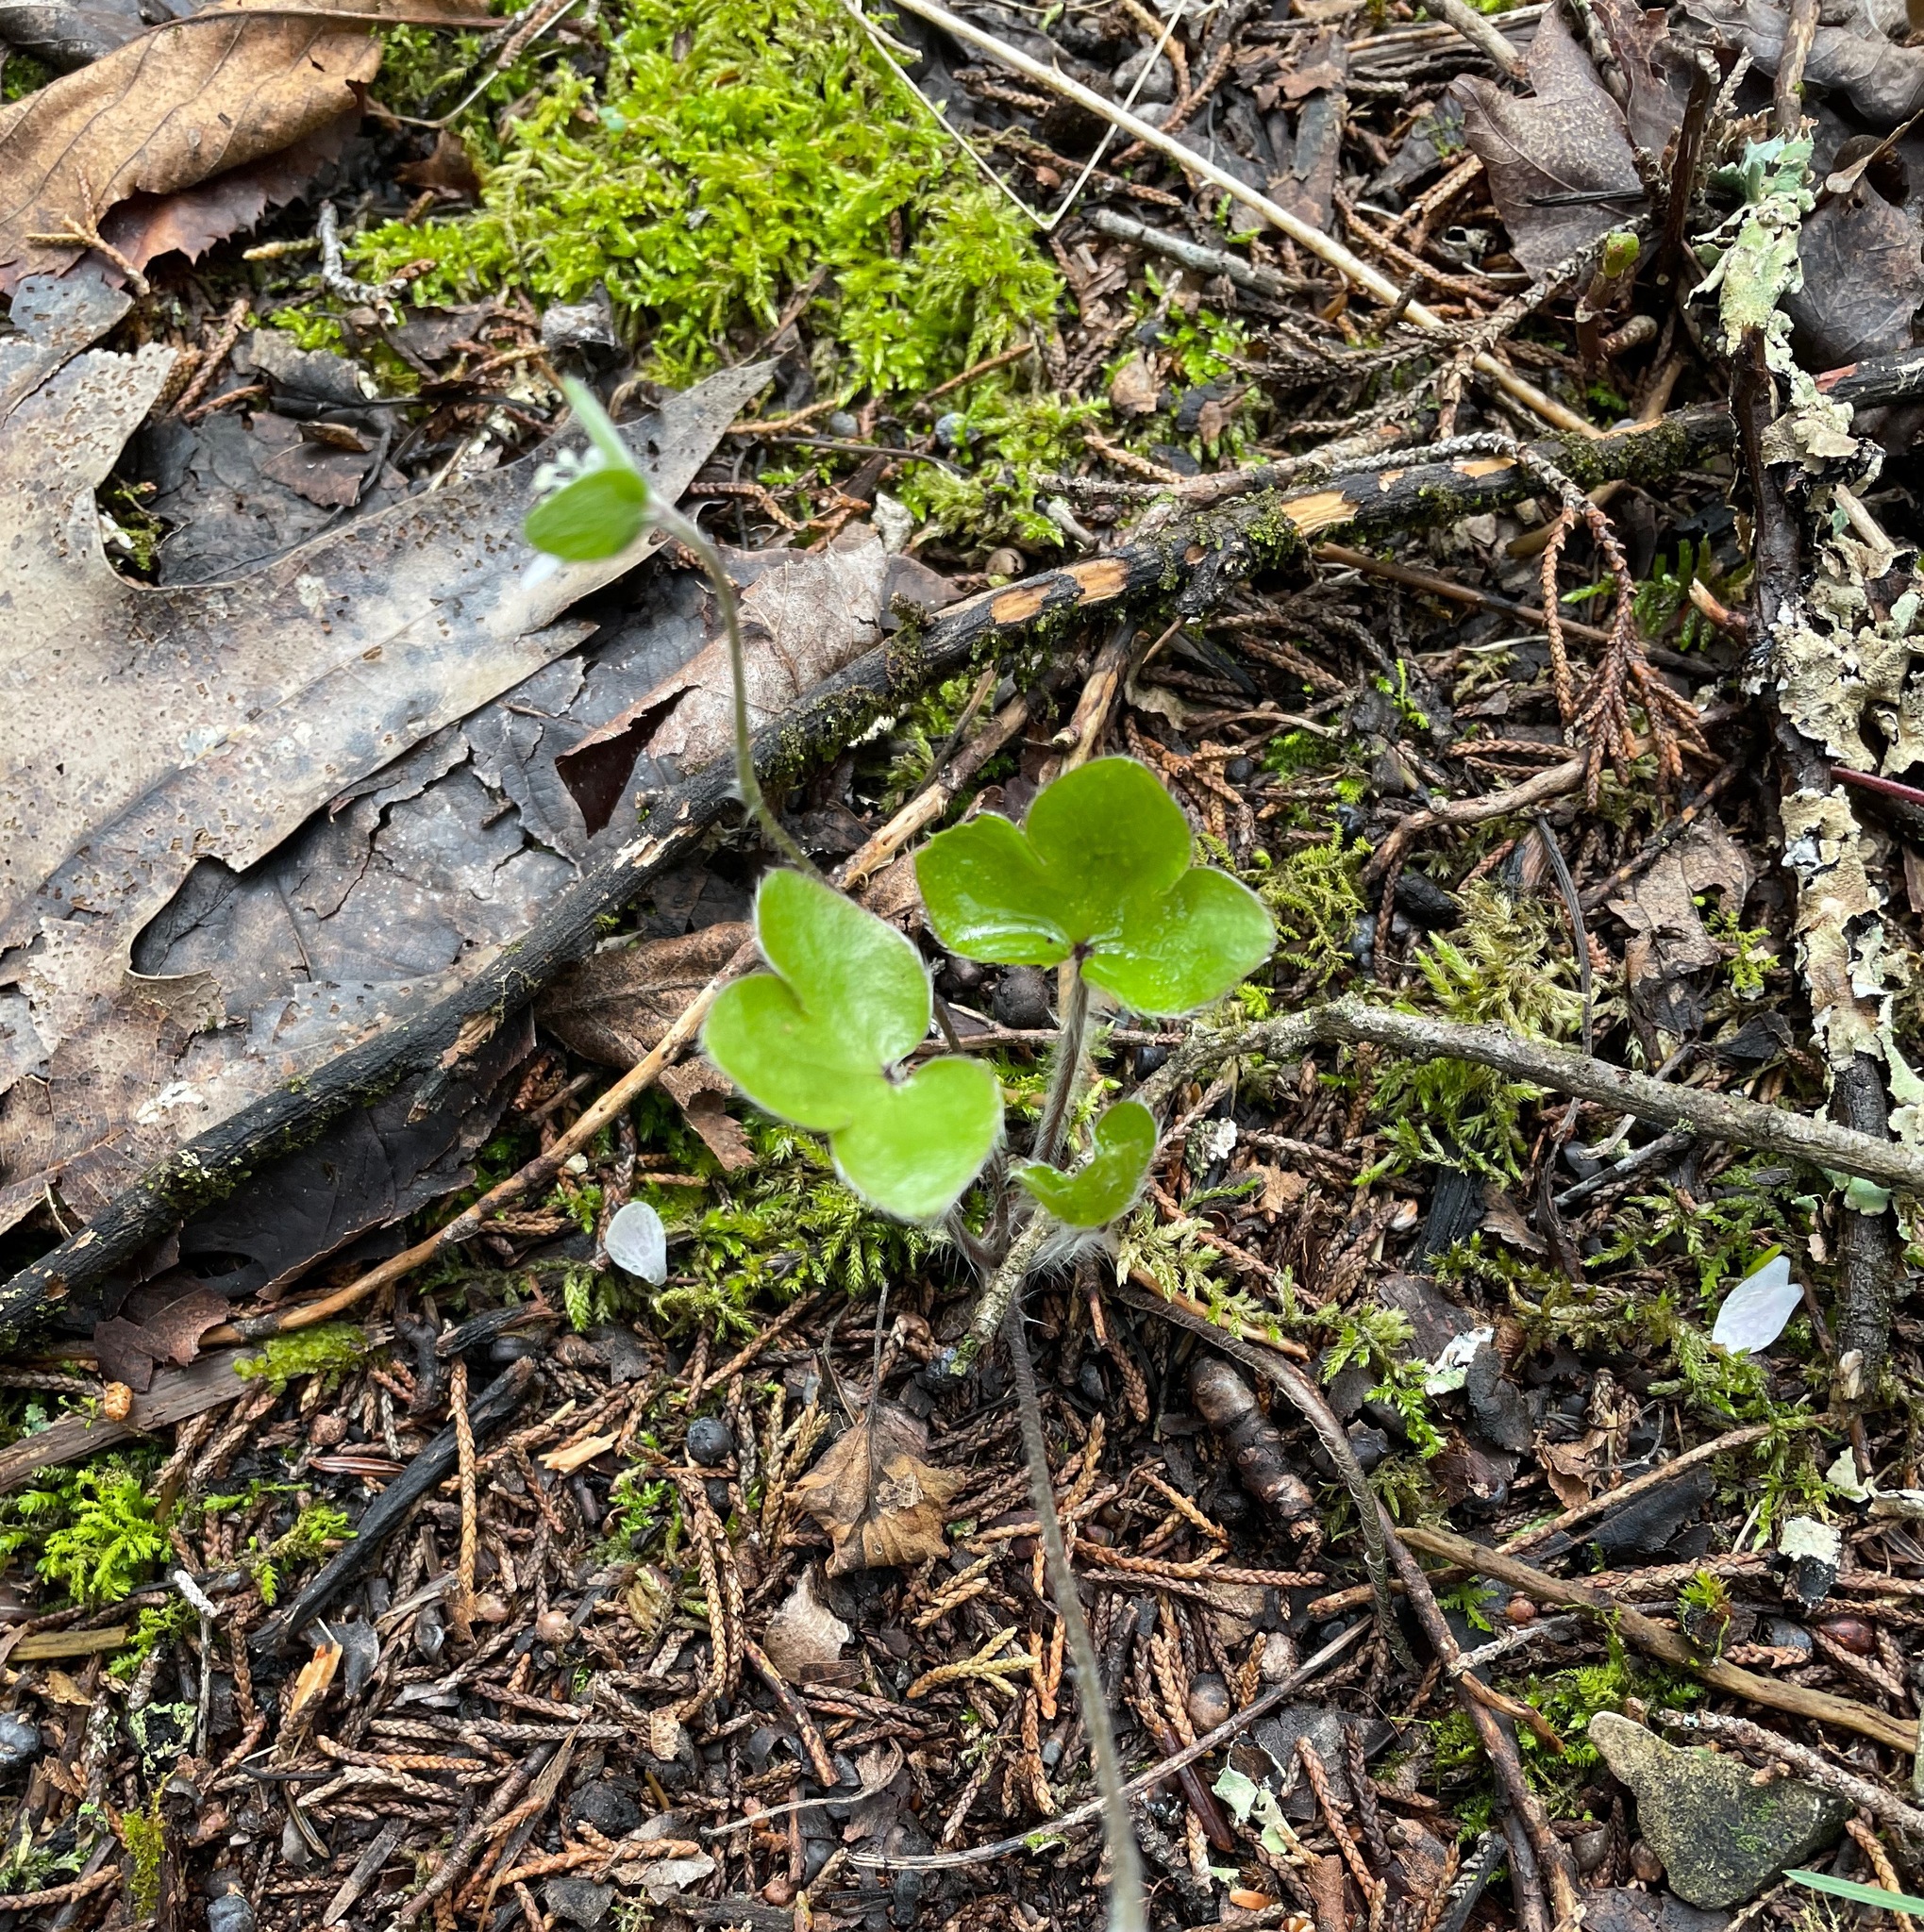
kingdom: Plantae
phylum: Tracheophyta
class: Magnoliopsida
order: Ranunculales
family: Ranunculaceae
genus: Hepatica
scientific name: Hepatica americana
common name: American hepatica
